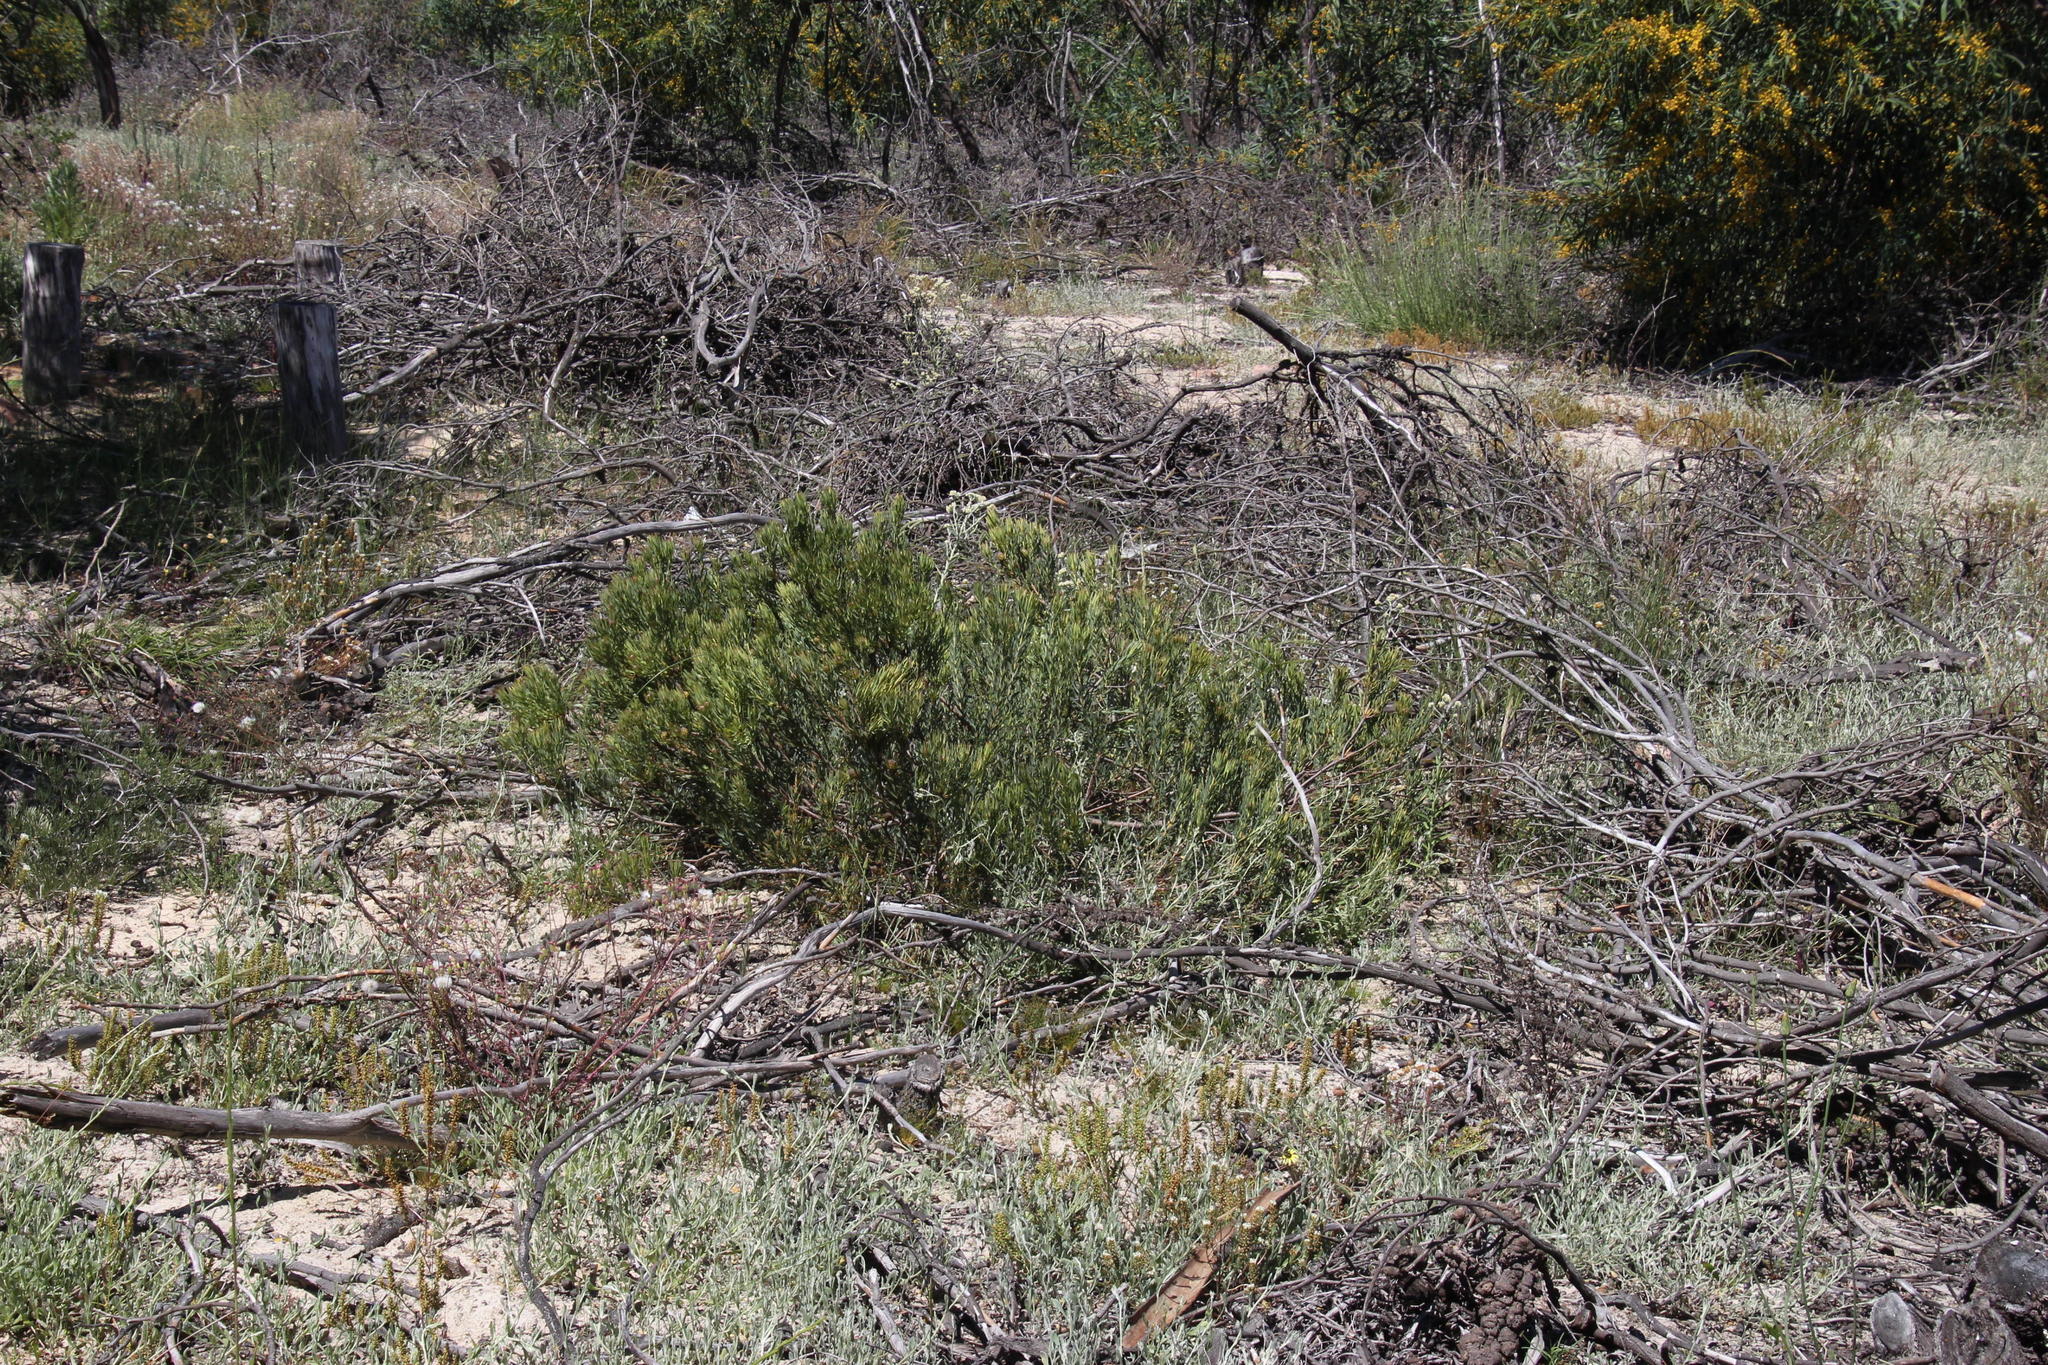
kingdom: Plantae
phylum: Tracheophyta
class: Magnoliopsida
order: Proteales
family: Proteaceae
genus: Leucadendron
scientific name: Leucadendron lanigerum
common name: Shale conebush
